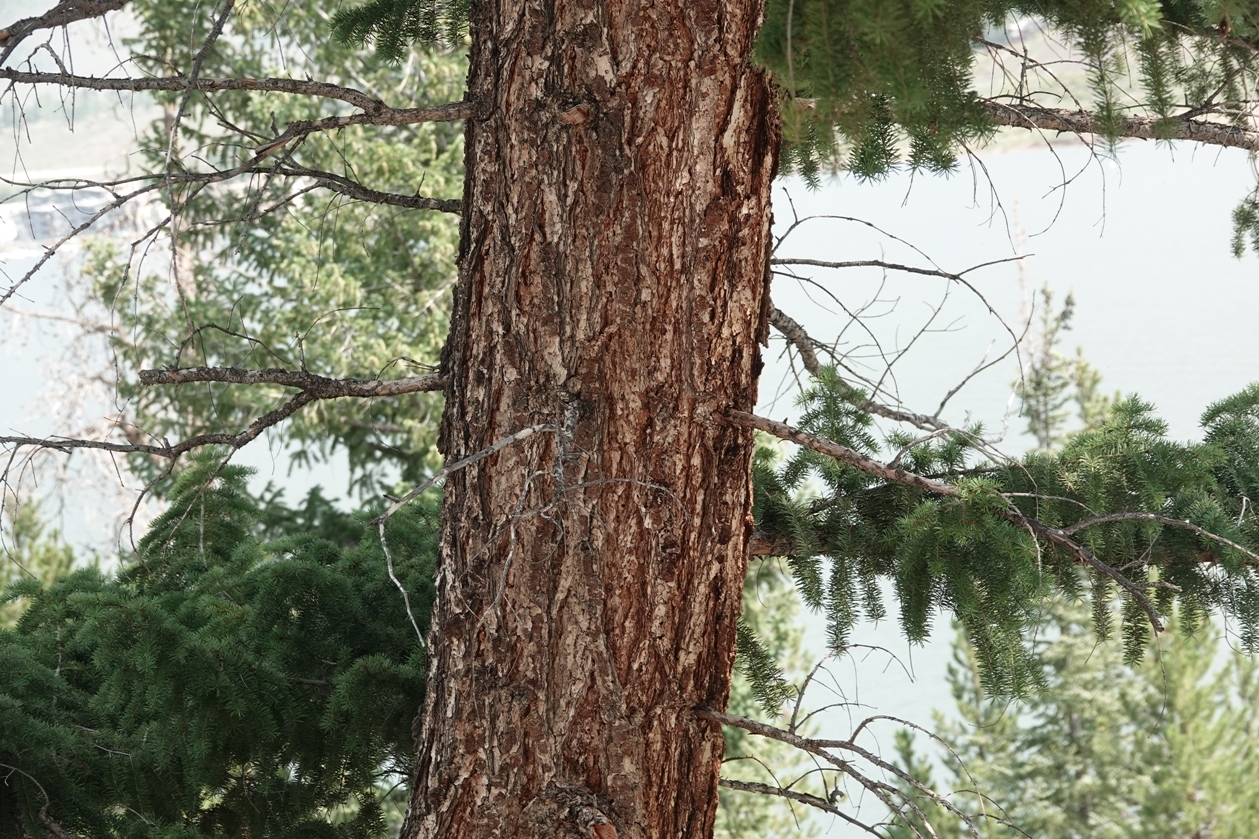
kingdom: Plantae
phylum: Tracheophyta
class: Pinopsida
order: Pinales
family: Pinaceae
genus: Pseudotsuga
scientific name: Pseudotsuga menziesii
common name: Douglas fir
